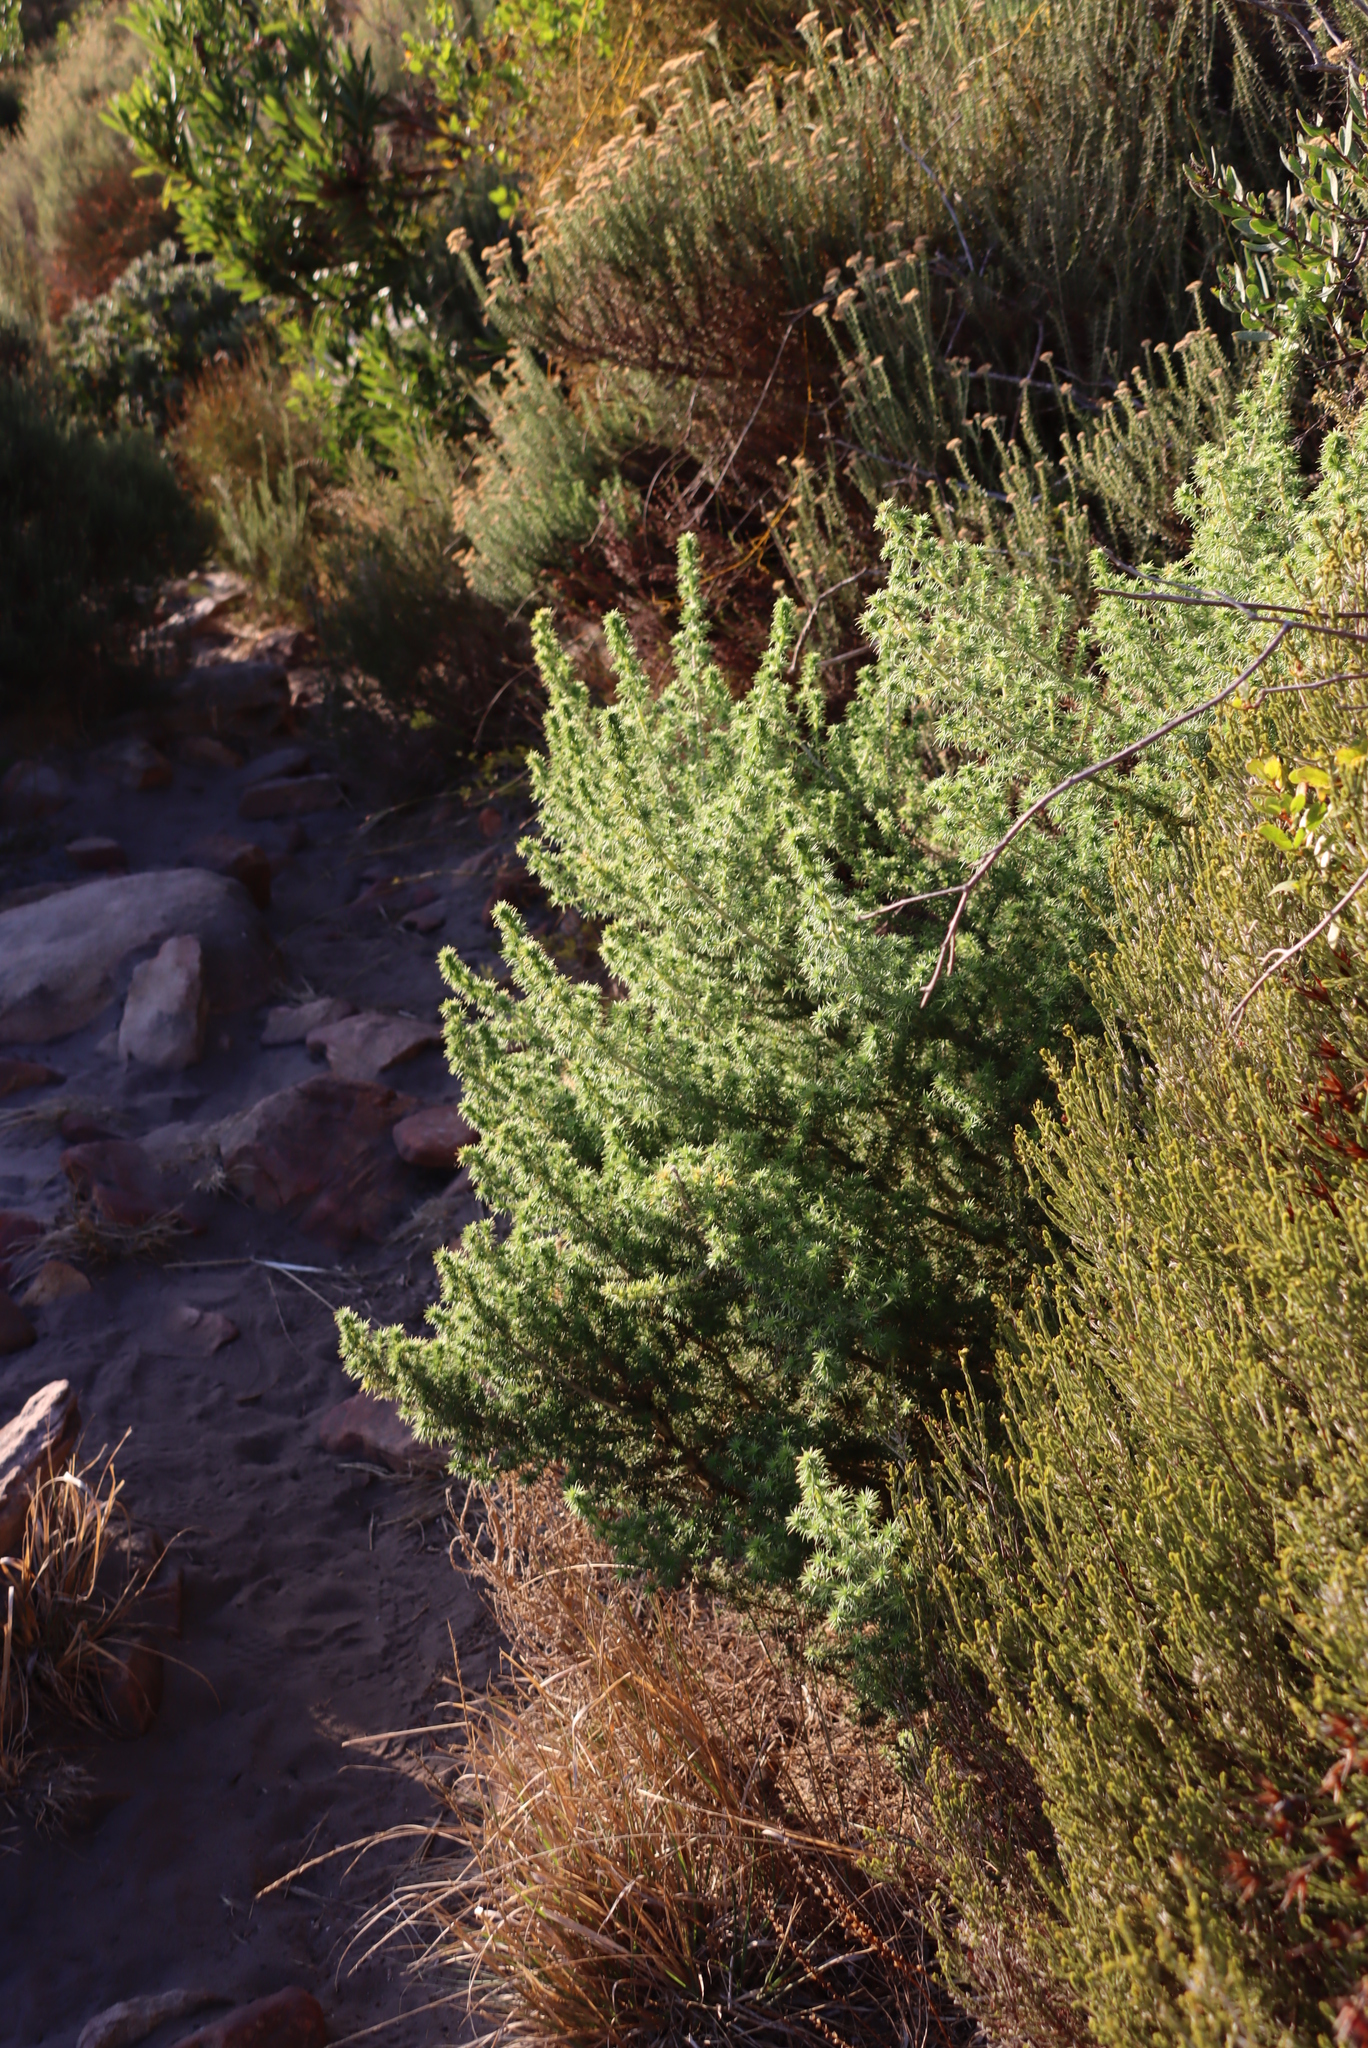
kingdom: Plantae
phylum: Tracheophyta
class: Magnoliopsida
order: Fabales
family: Fabaceae
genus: Aspalathus
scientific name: Aspalathus chenopoda
